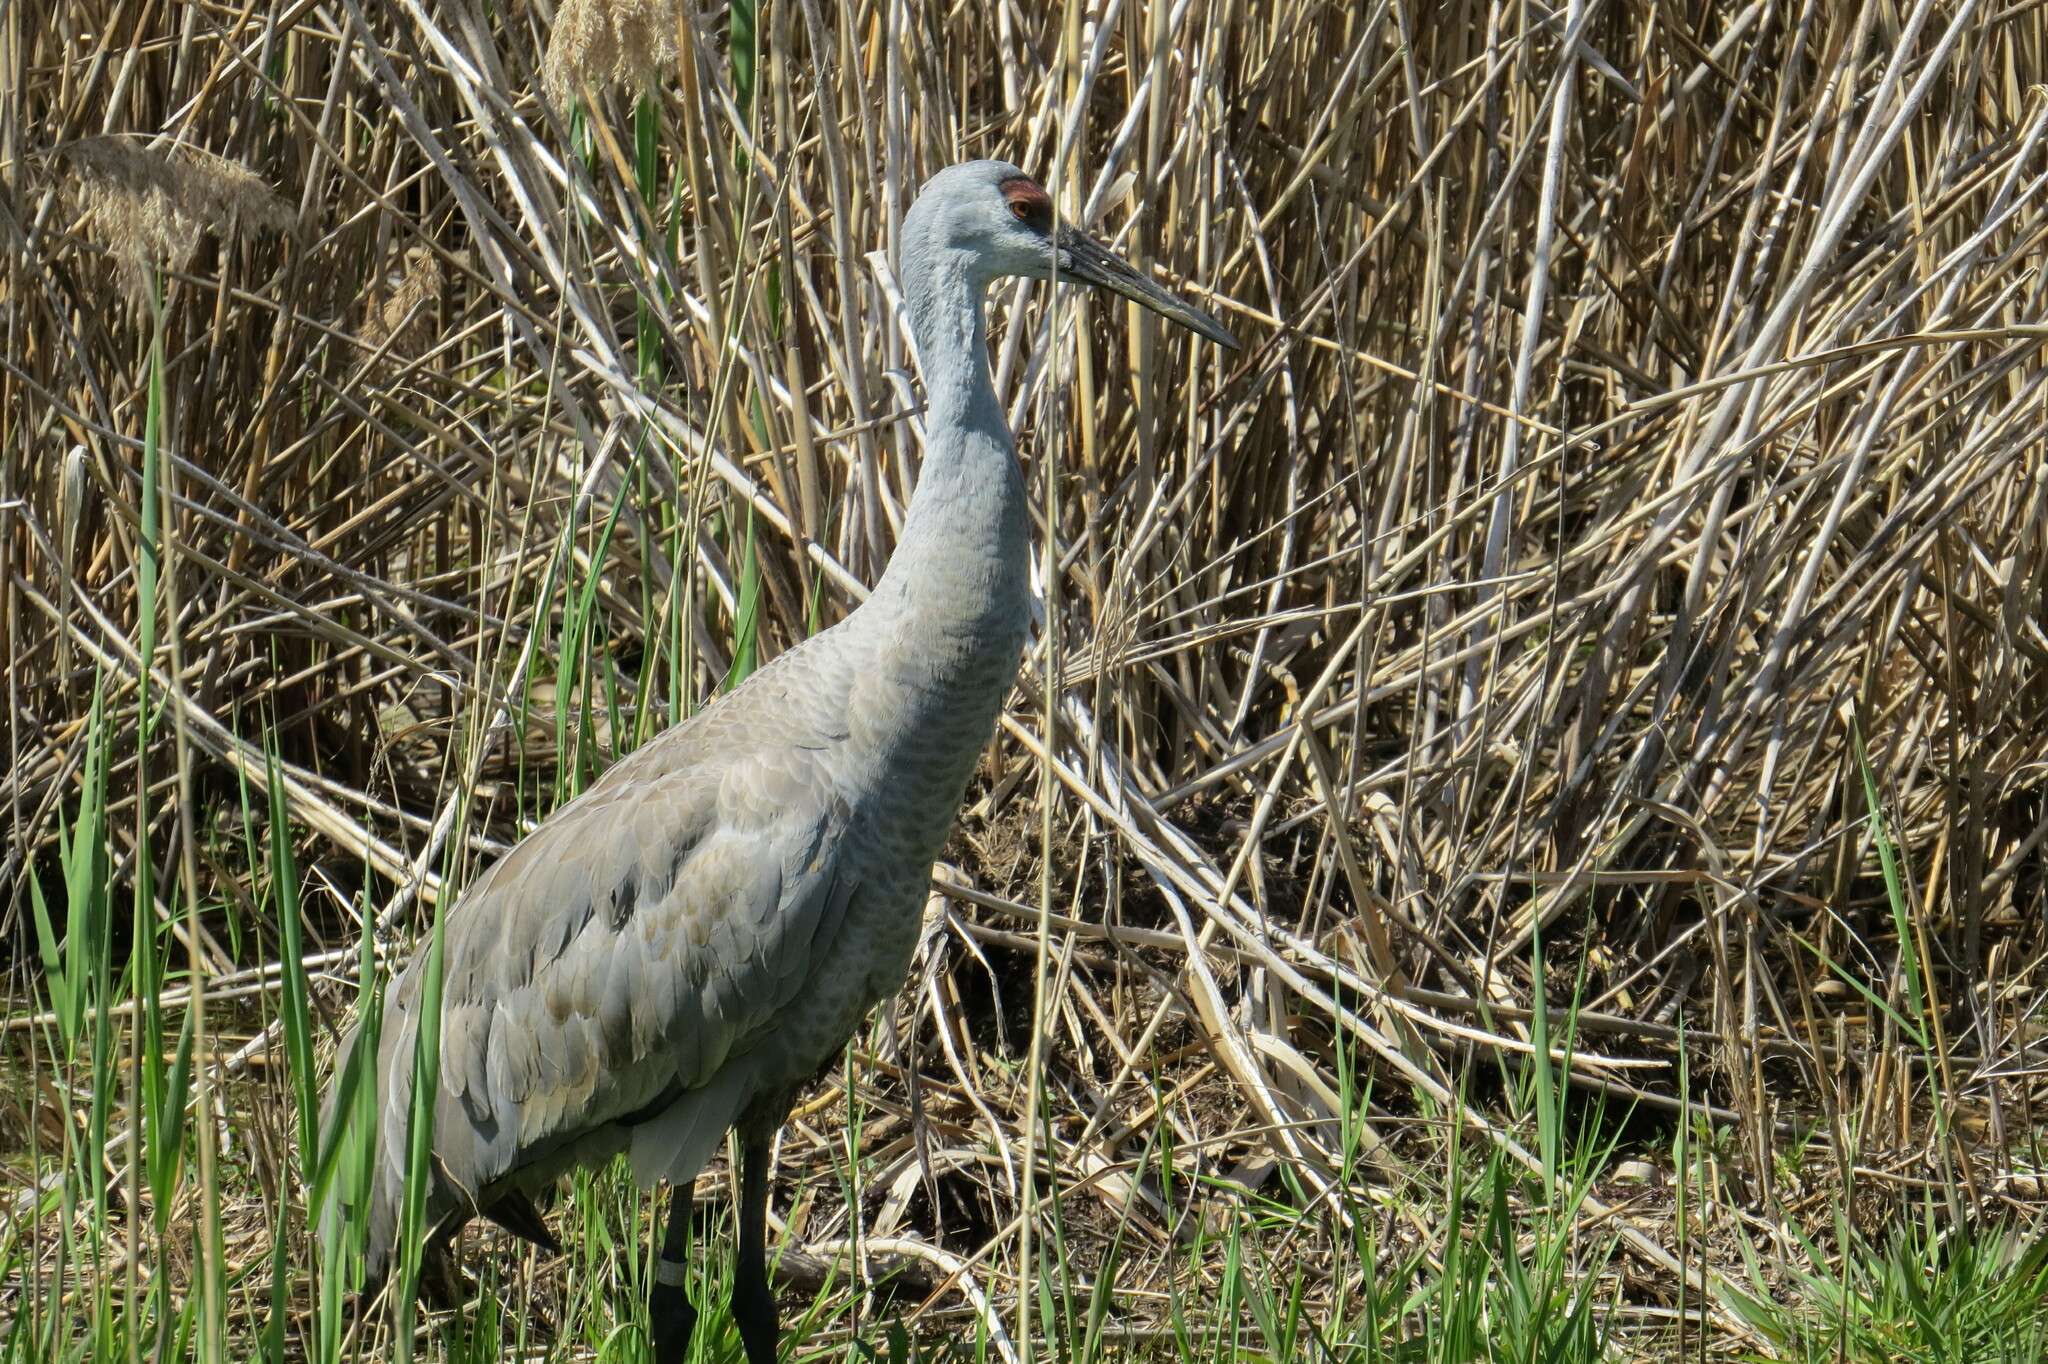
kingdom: Animalia
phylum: Chordata
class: Aves
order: Gruiformes
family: Gruidae
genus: Grus
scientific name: Grus canadensis
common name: Sandhill crane
